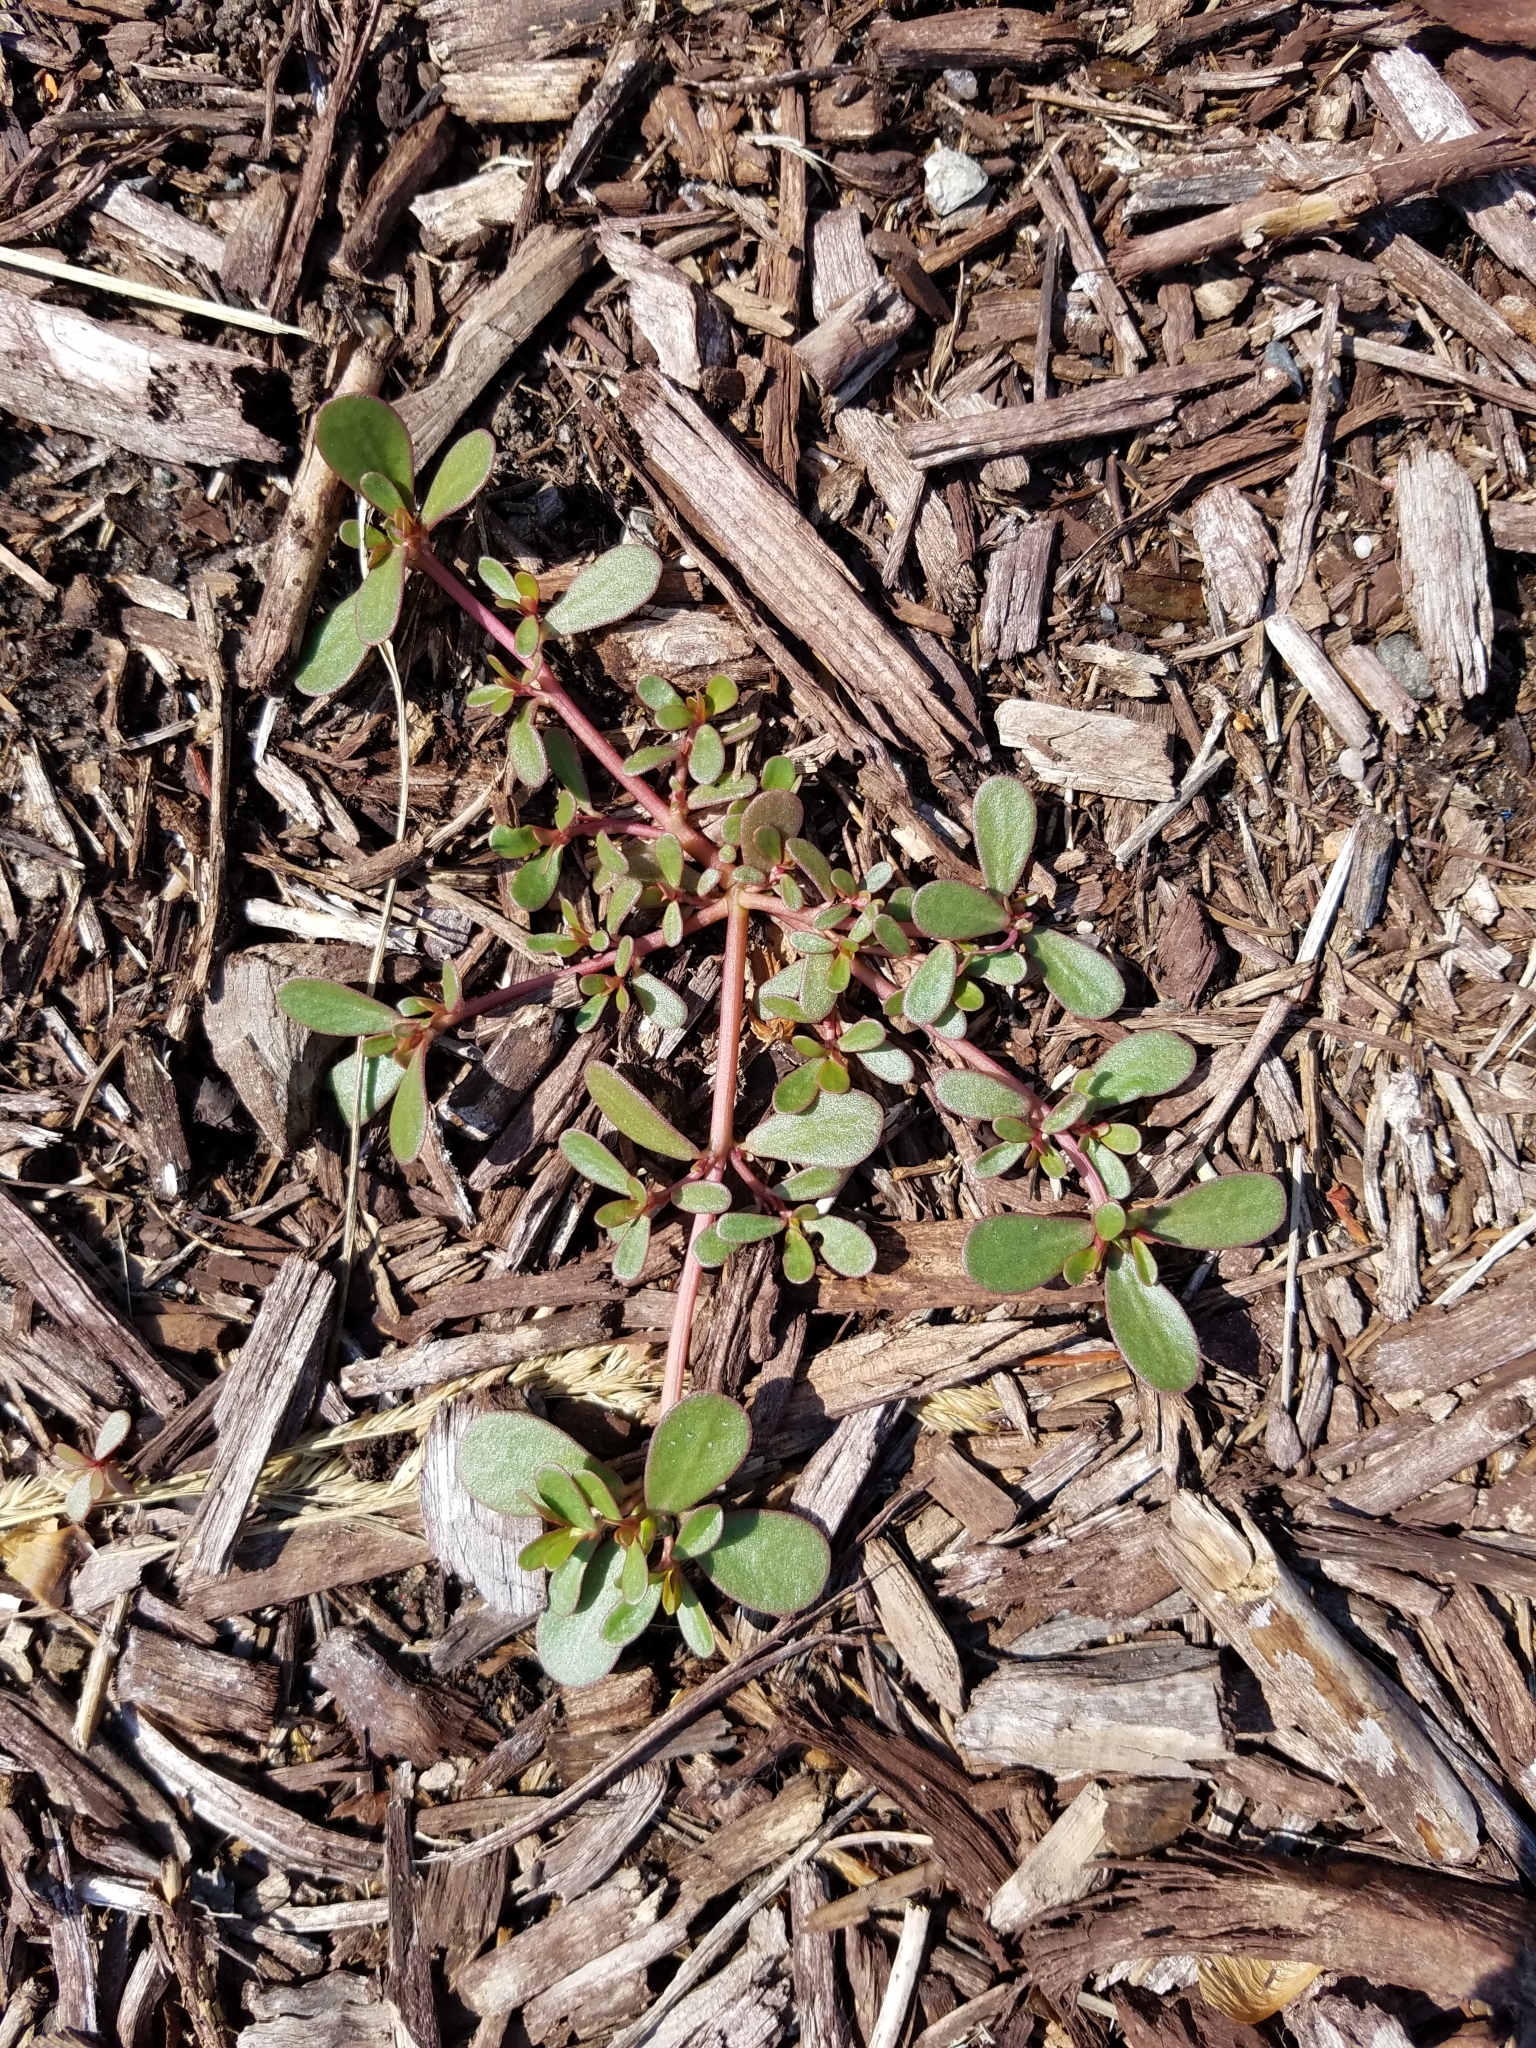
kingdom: Plantae
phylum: Tracheophyta
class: Magnoliopsida
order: Caryophyllales
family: Portulacaceae
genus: Portulaca
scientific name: Portulaca oleracea
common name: Common purslane
